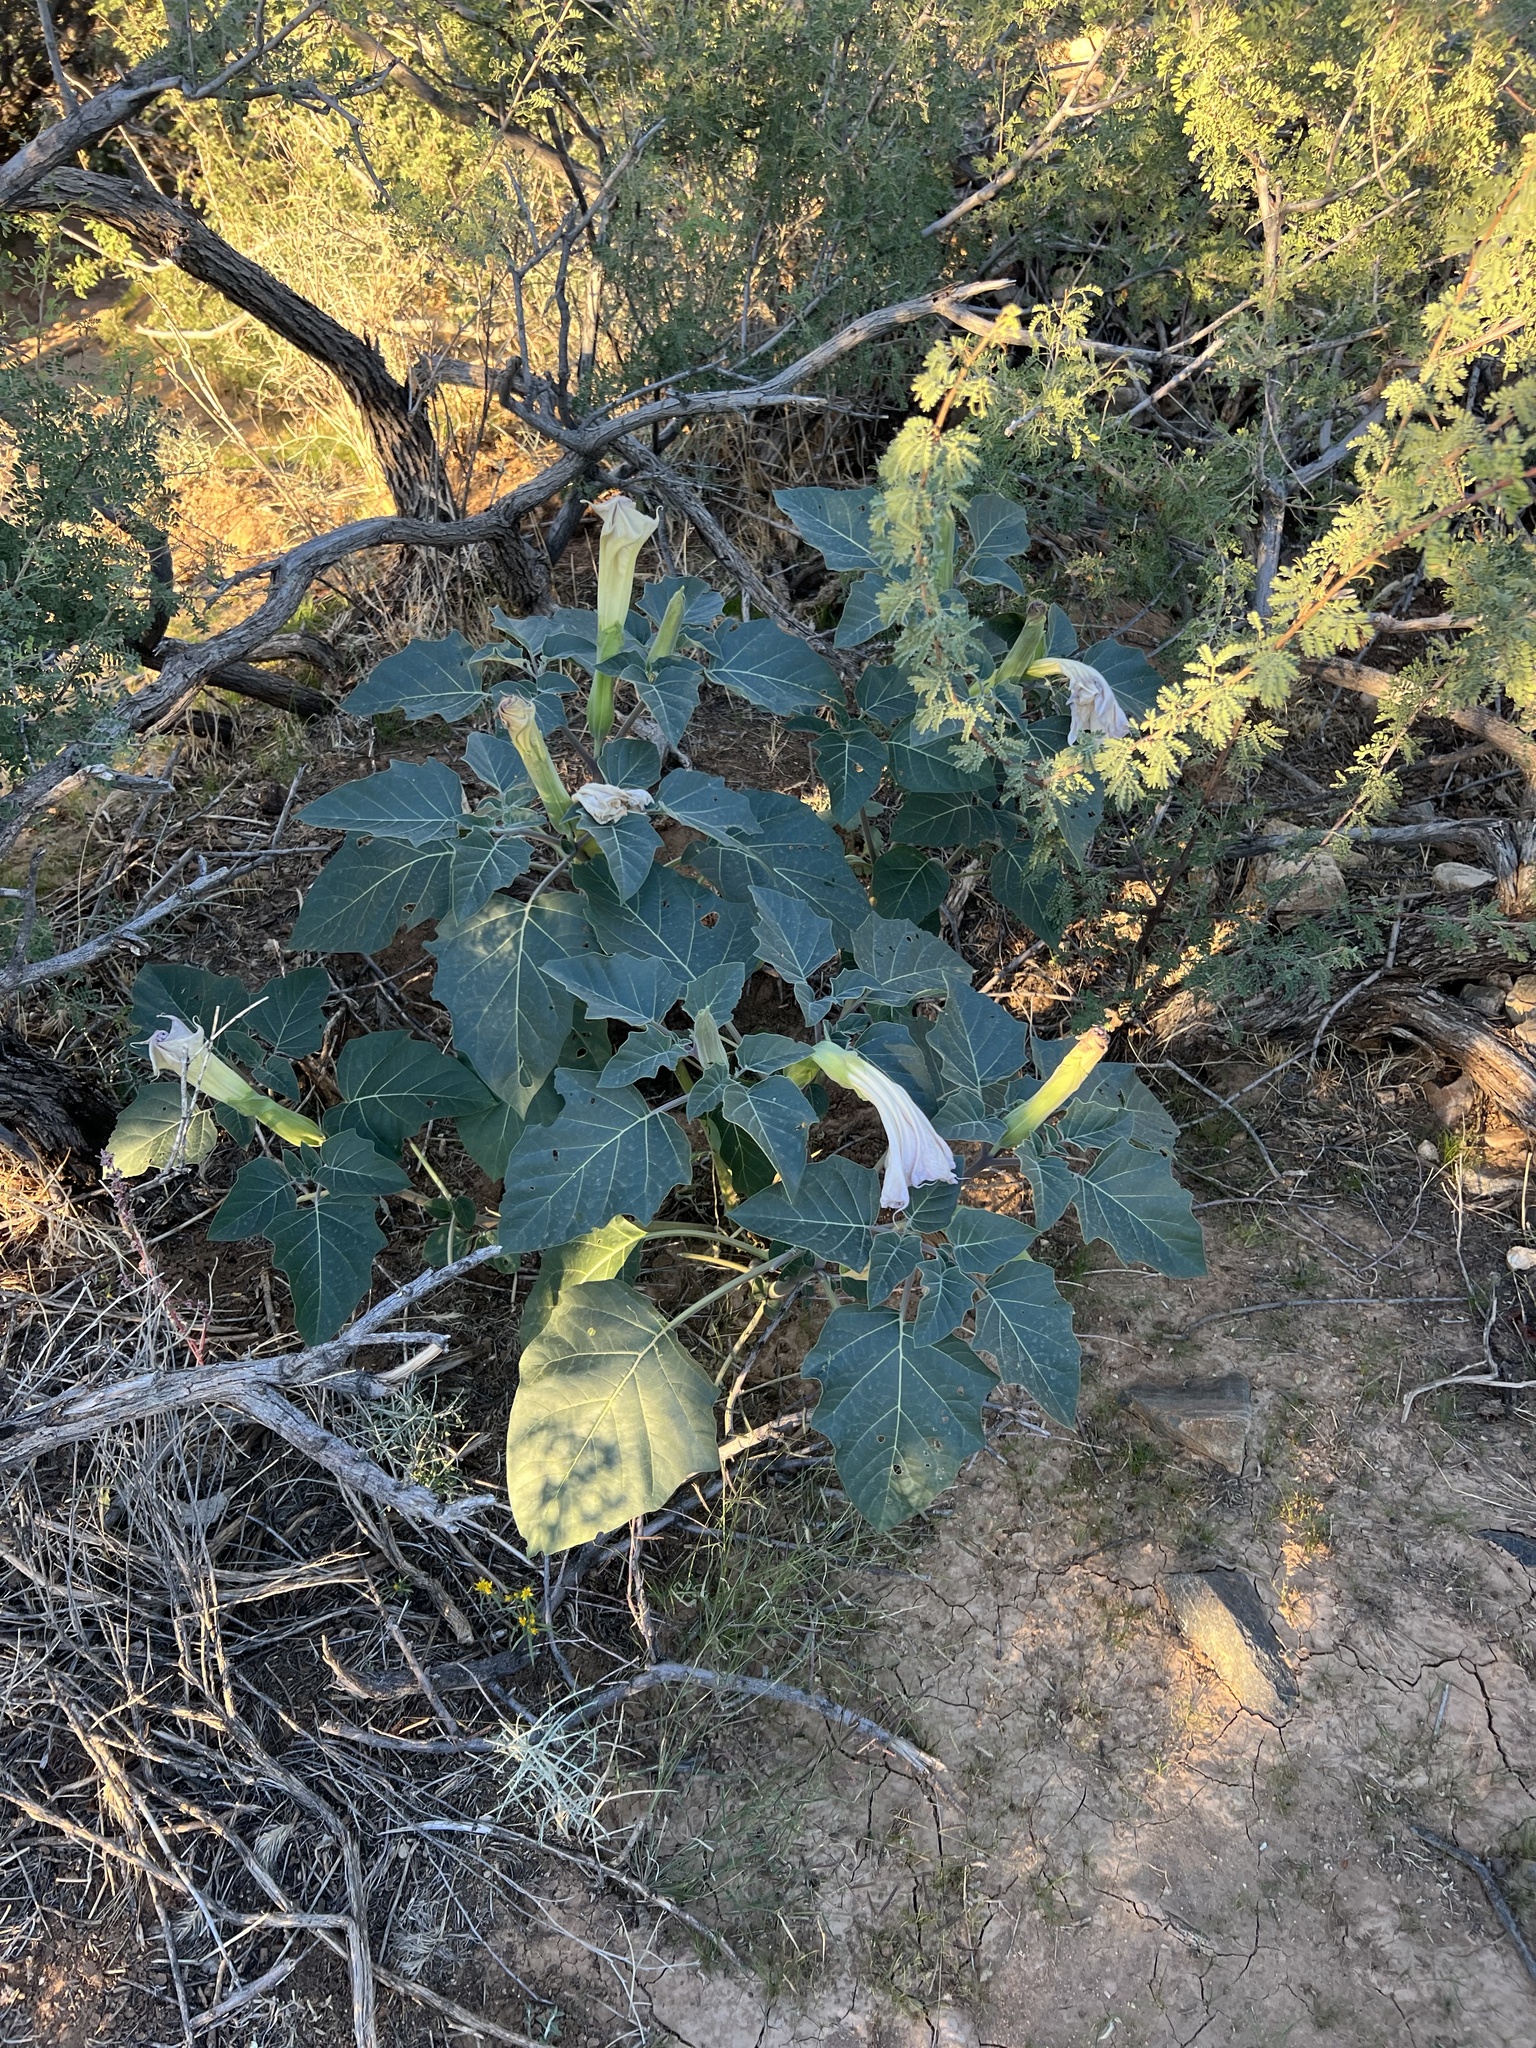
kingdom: Plantae
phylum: Tracheophyta
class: Magnoliopsida
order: Solanales
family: Solanaceae
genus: Datura
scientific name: Datura wrightii
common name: Sacred thorn-apple
